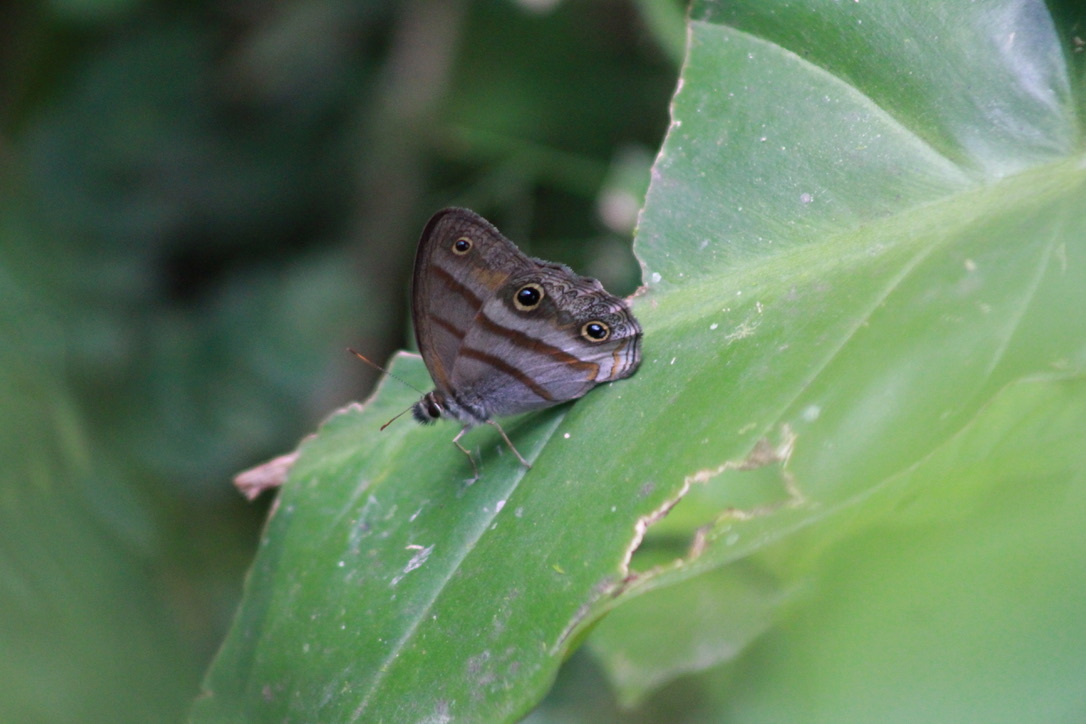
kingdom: Animalia
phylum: Arthropoda
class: Insecta
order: Lepidoptera
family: Nymphalidae
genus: Argyreuptychia
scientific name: Argyreuptychia penelope
